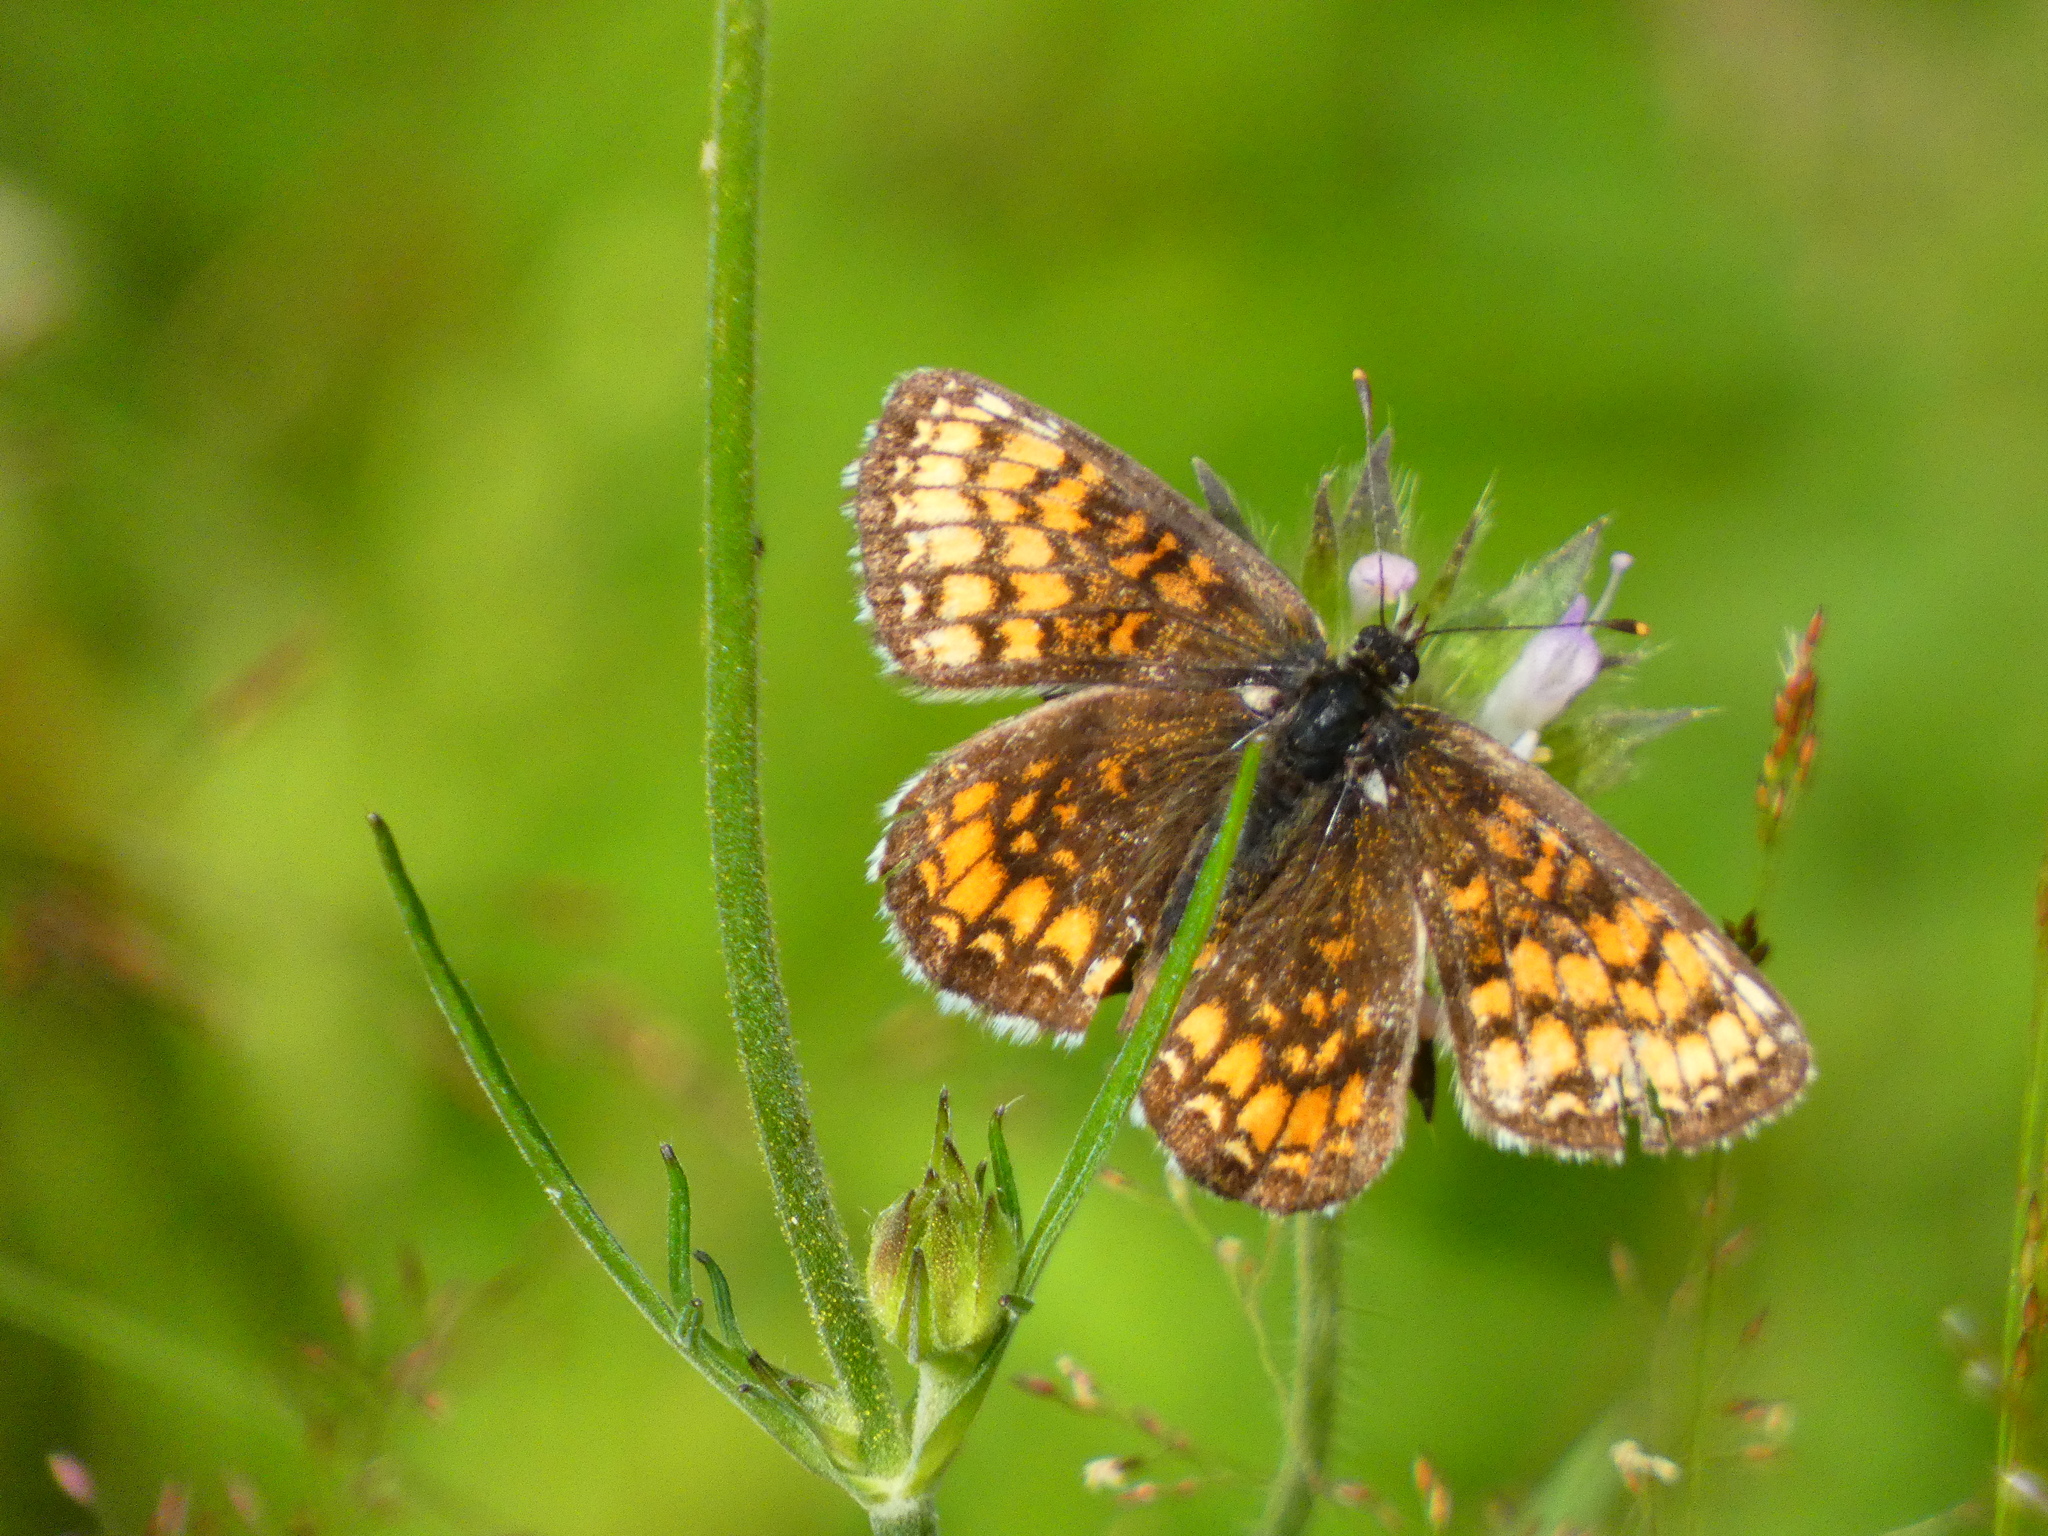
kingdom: Animalia
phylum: Arthropoda
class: Insecta
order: Lepidoptera
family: Nymphalidae
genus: Melitaea
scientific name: Melitaea athalia
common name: Heath fritillary
